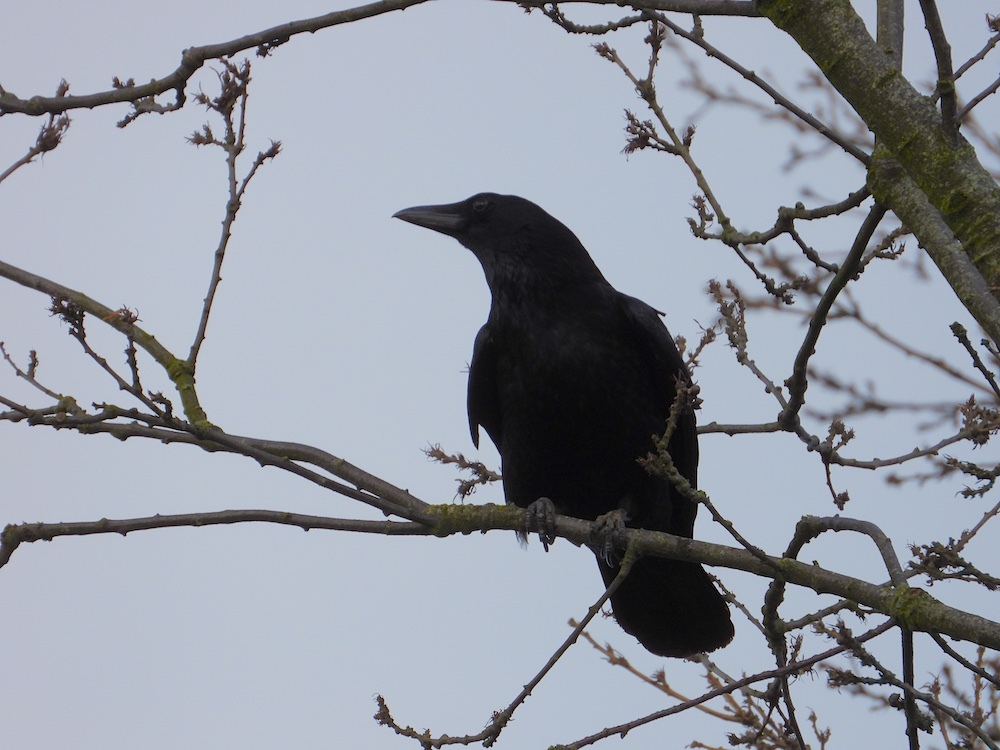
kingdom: Animalia
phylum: Chordata
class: Aves
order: Passeriformes
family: Corvidae
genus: Corvus
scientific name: Corvus corone
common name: Carrion crow
